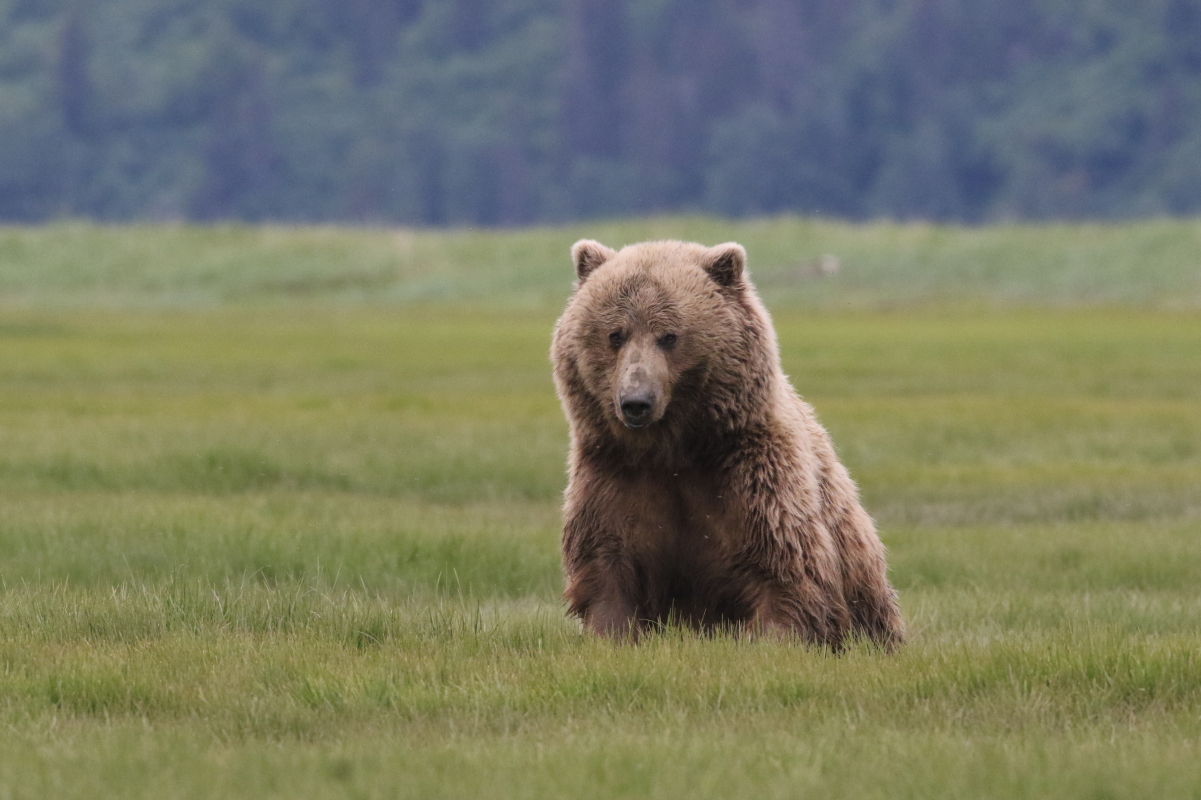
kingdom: Animalia
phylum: Chordata
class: Mammalia
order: Carnivora
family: Ursidae
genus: Ursus
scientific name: Ursus arctos
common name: Brown bear
